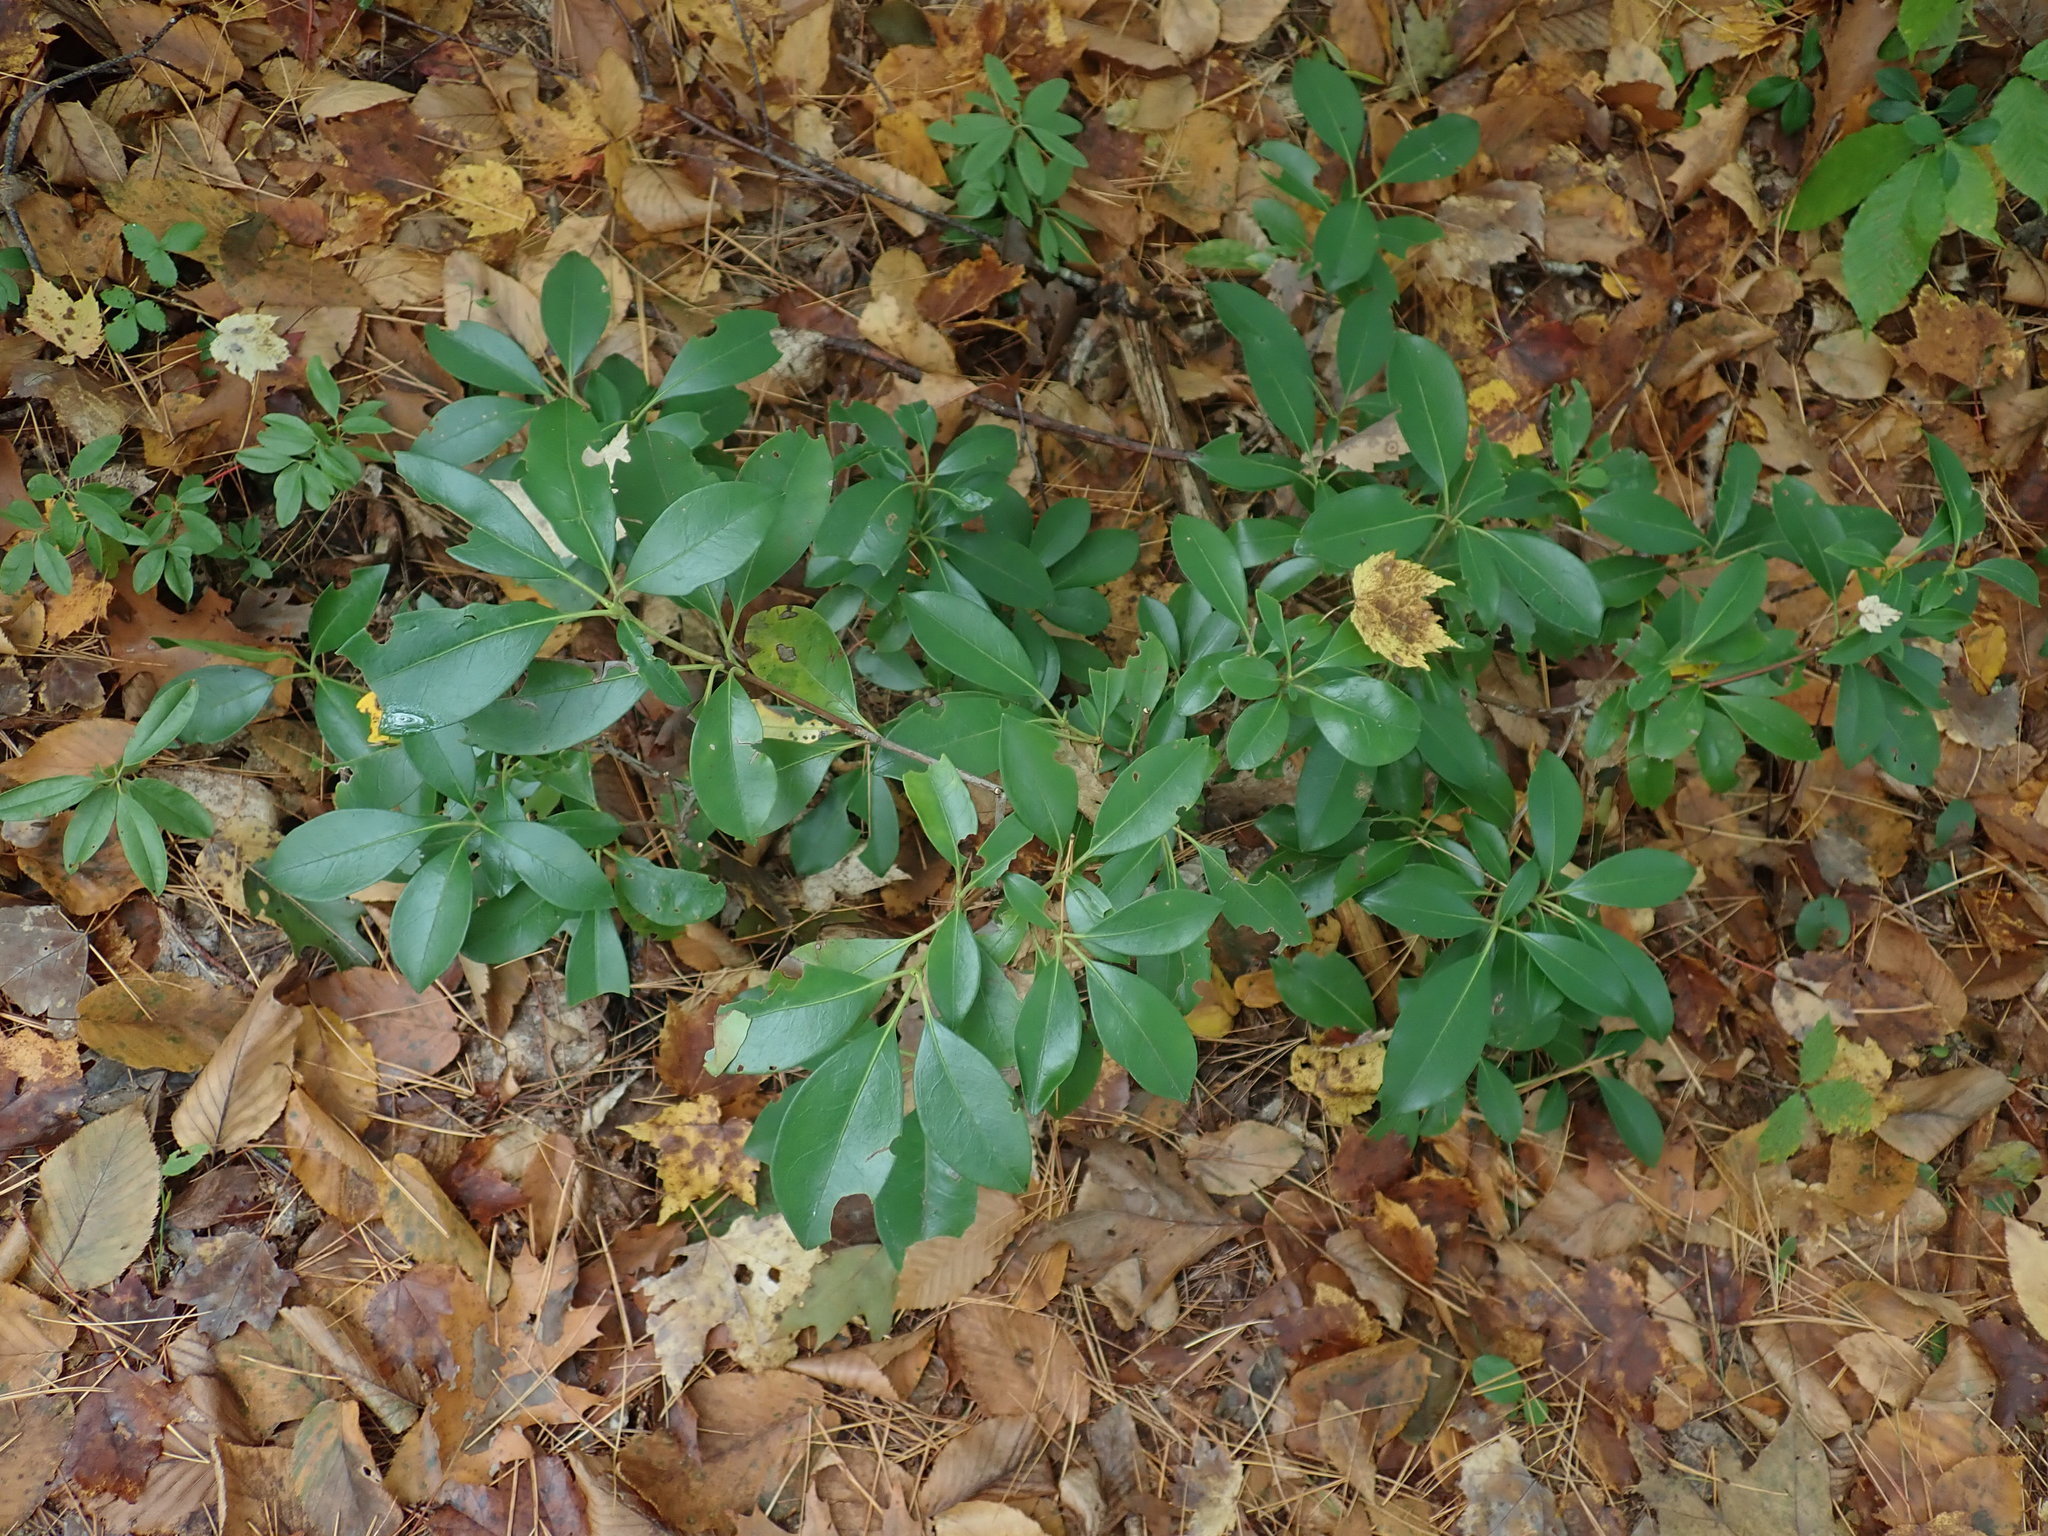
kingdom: Plantae
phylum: Tracheophyta
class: Magnoliopsida
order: Ericales
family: Ericaceae
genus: Kalmia
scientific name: Kalmia latifolia
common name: Mountain-laurel
